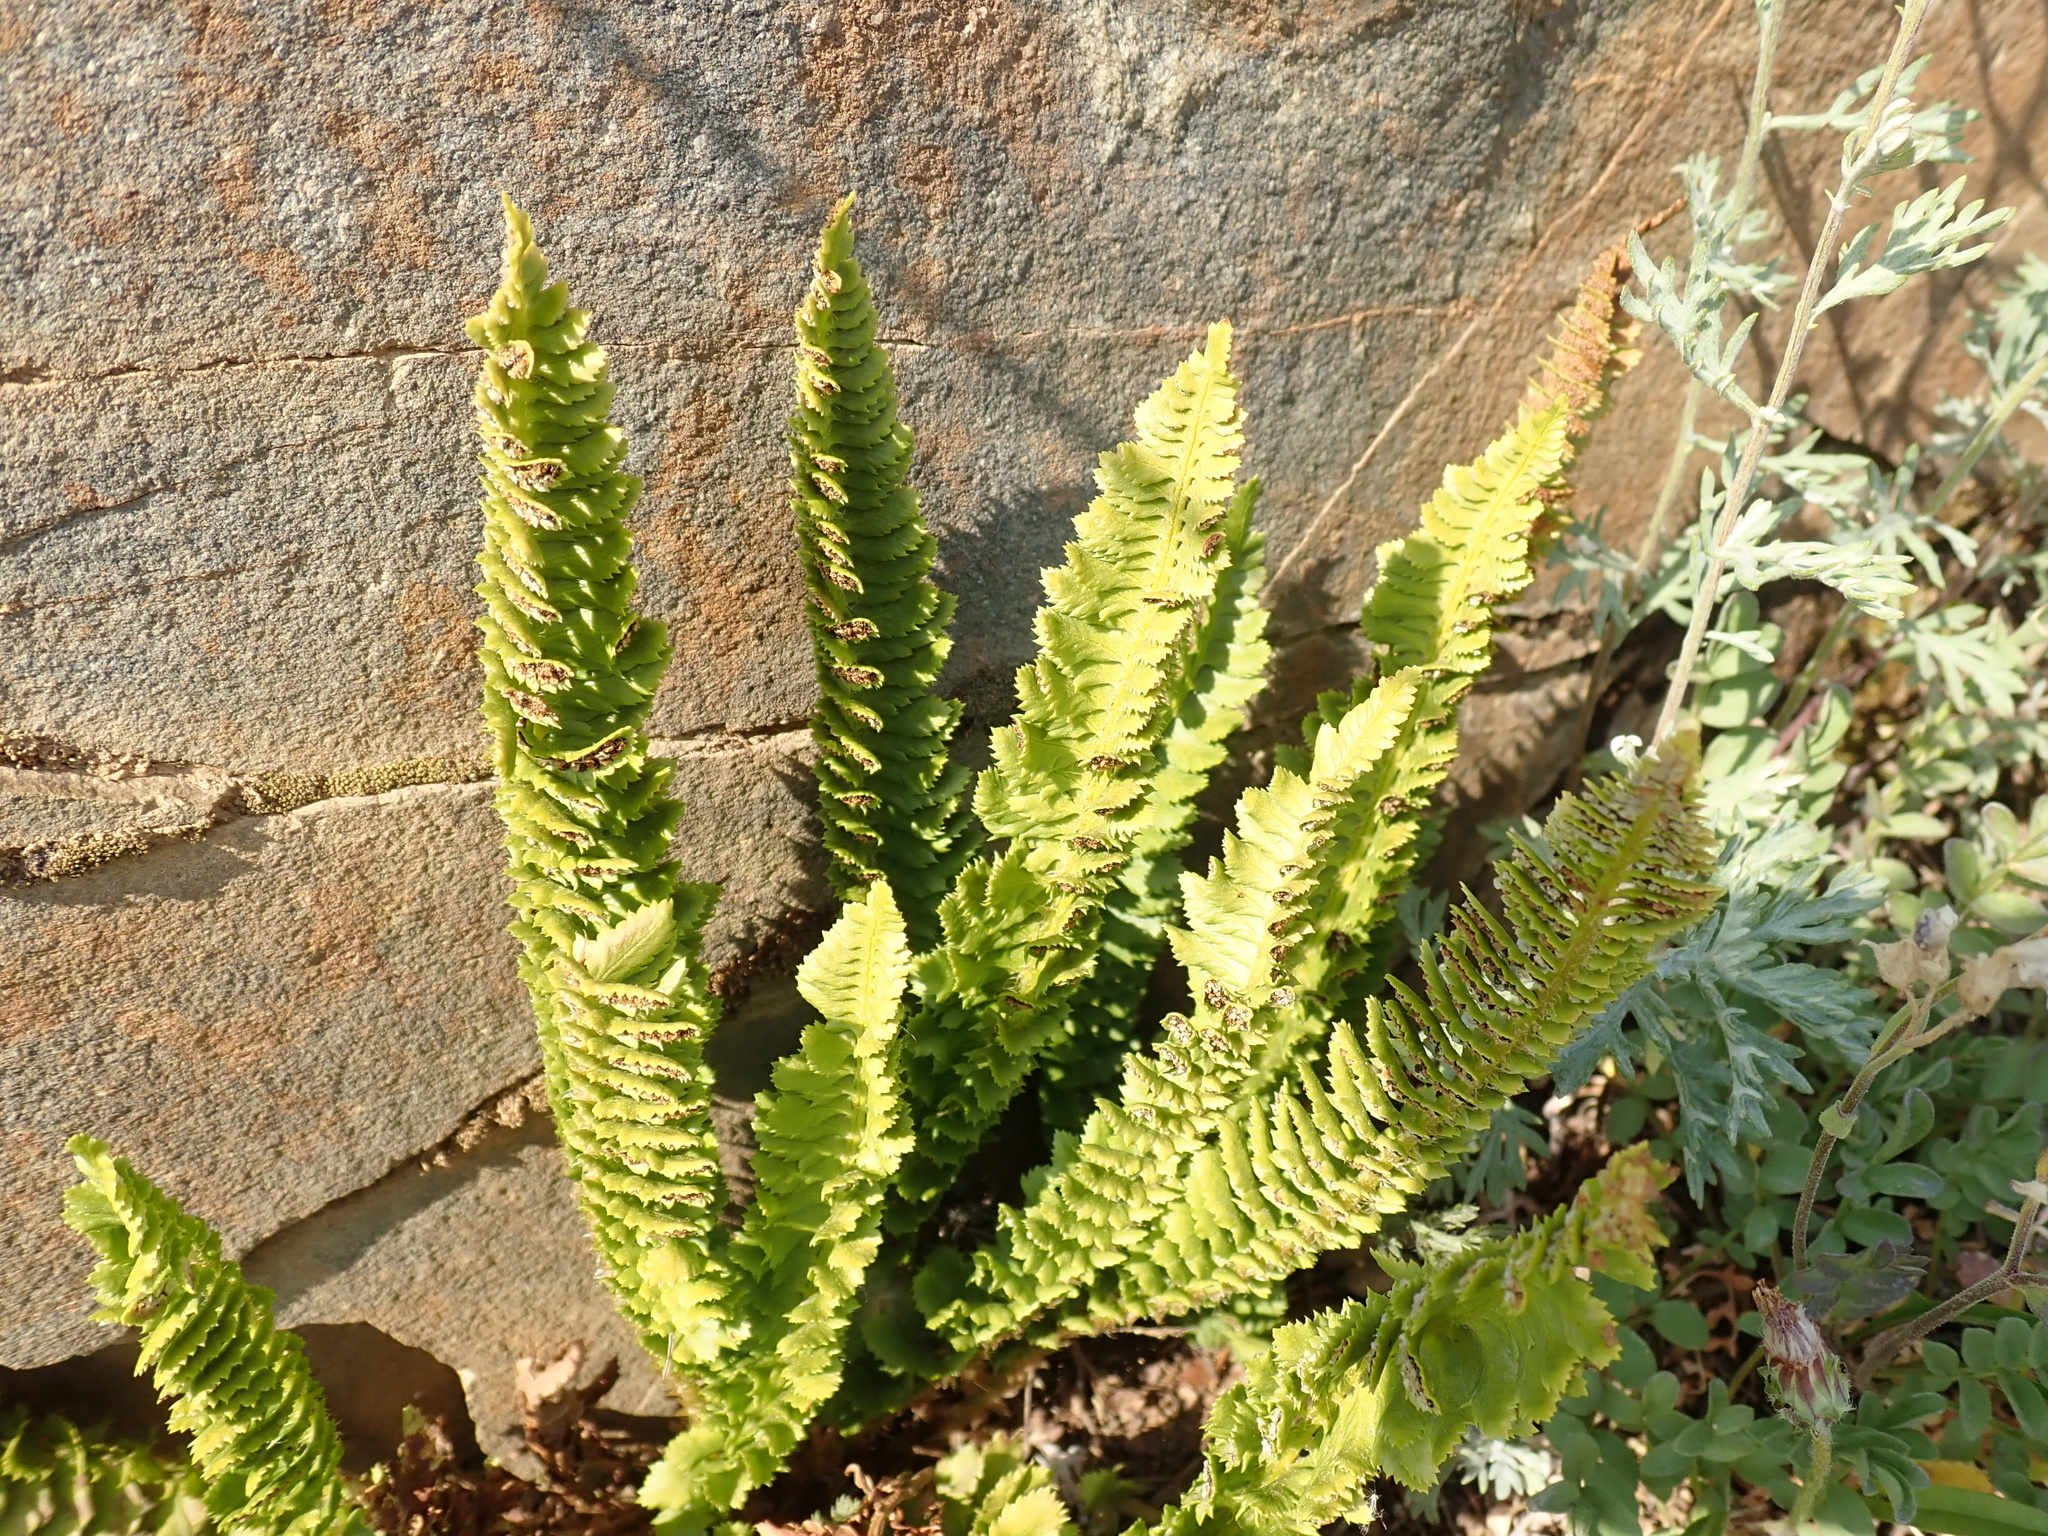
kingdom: Plantae
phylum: Tracheophyta
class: Polypodiopsida
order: Polypodiales
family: Dryopteridaceae
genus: Polystichum
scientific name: Polystichum kruckebergii
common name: Kruckeberg's holly fern
